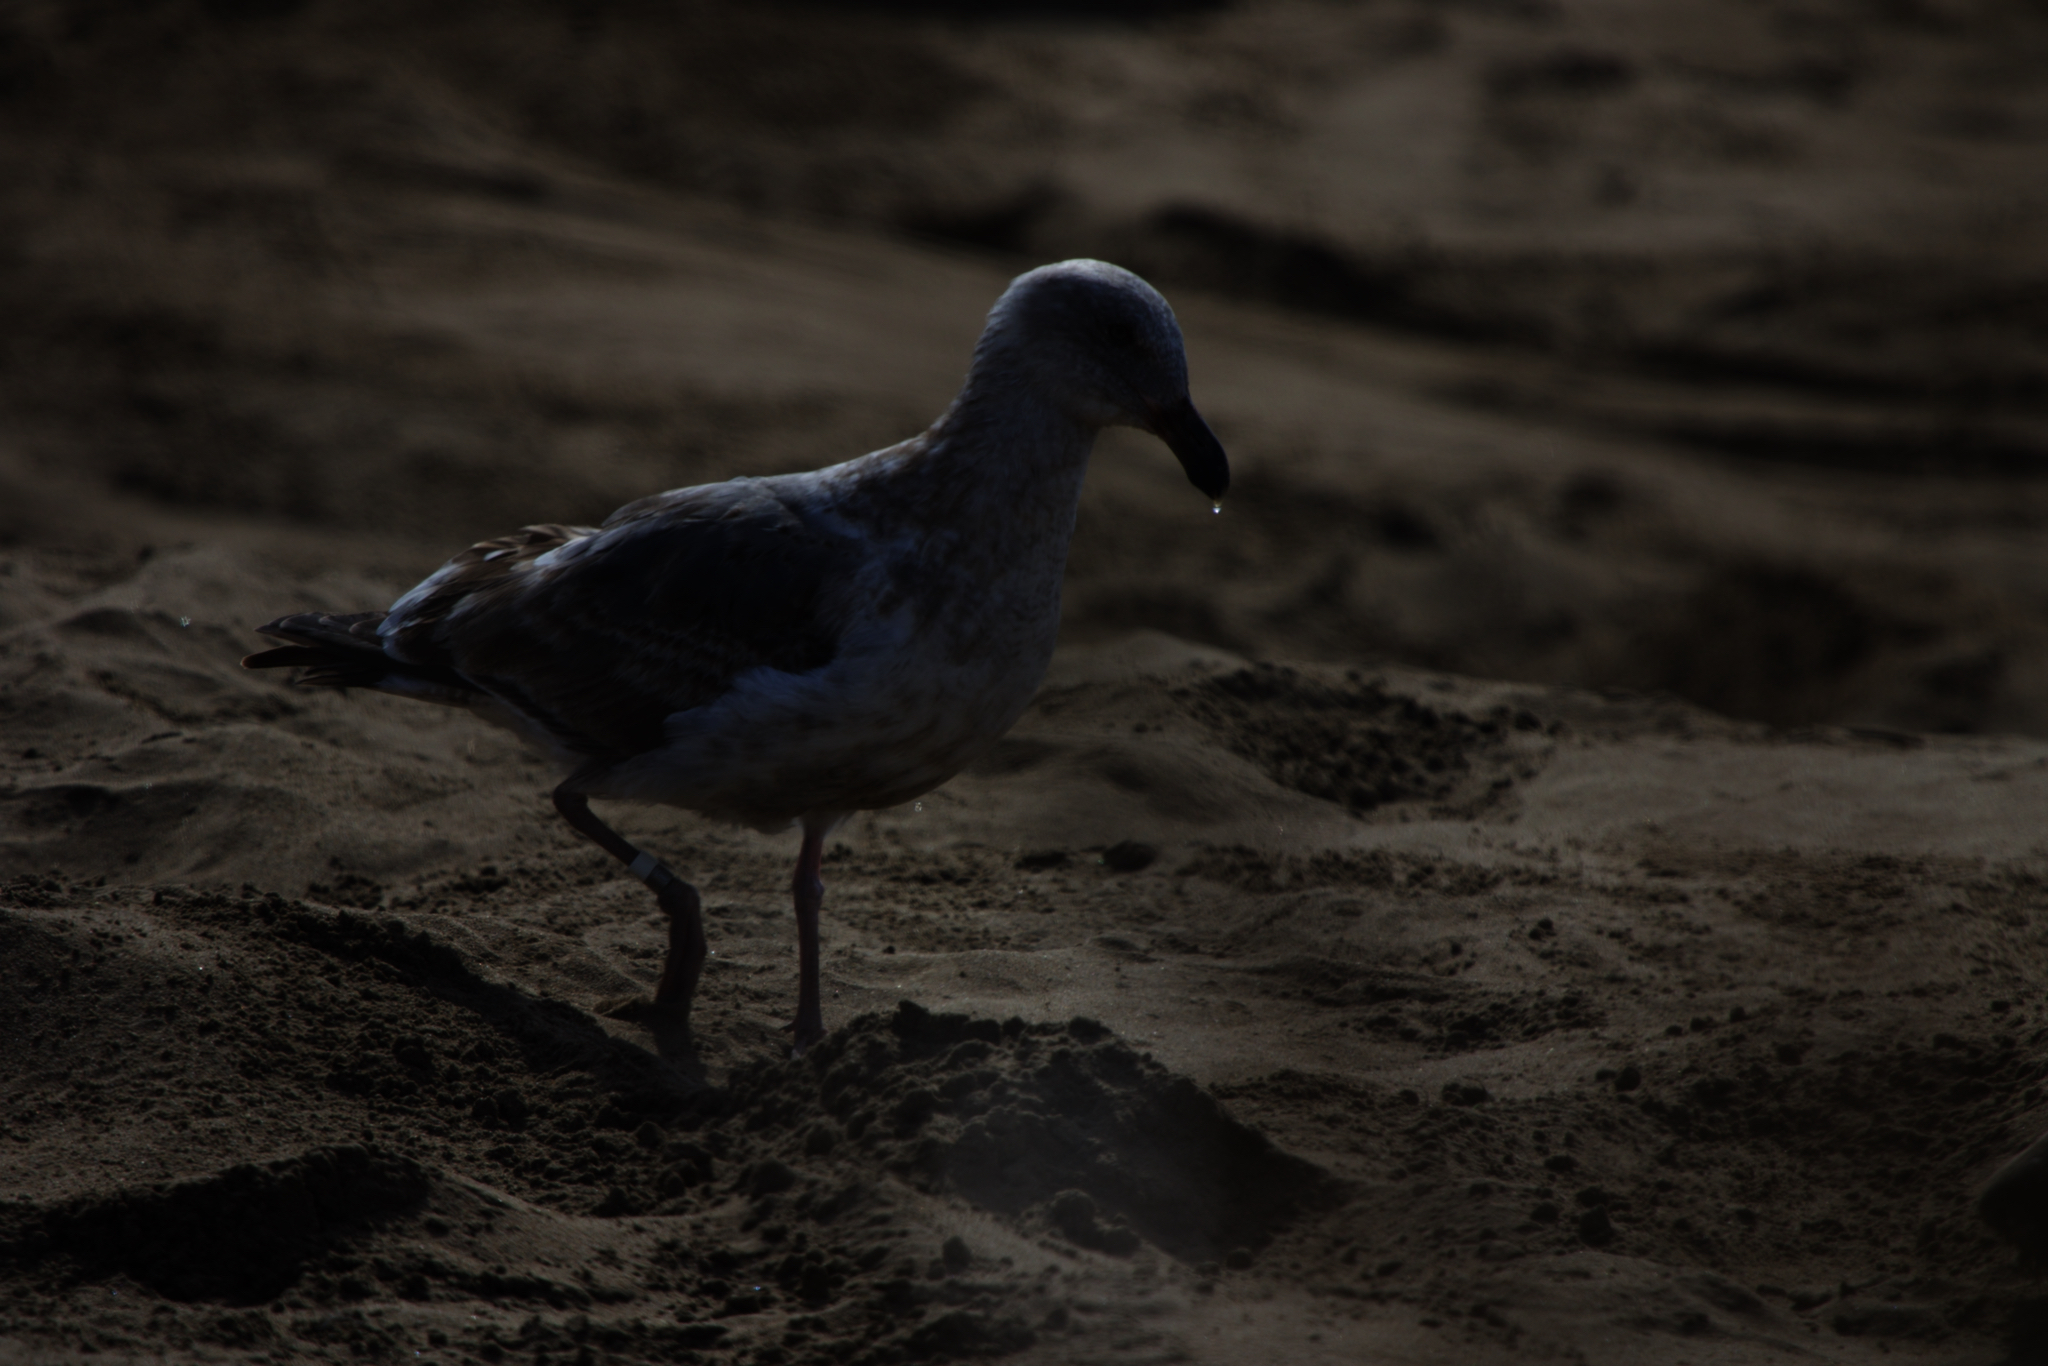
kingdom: Animalia
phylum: Chordata
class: Aves
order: Charadriiformes
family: Laridae
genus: Larus
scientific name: Larus occidentalis
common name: Western gull
